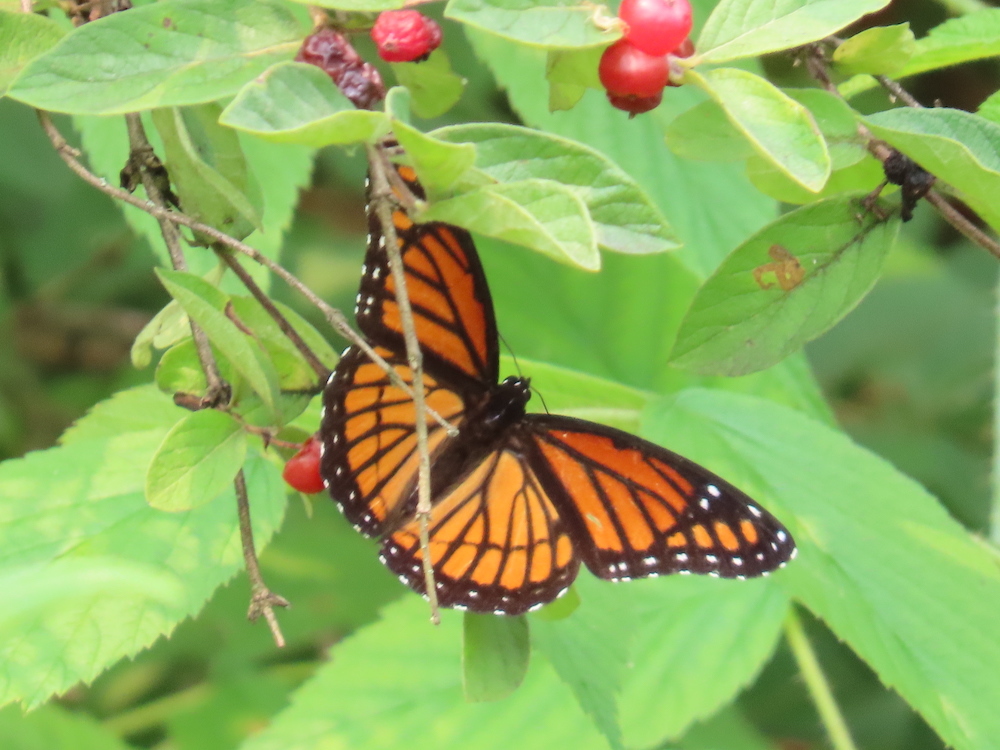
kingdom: Animalia
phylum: Arthropoda
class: Insecta
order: Lepidoptera
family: Nymphalidae
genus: Limenitis
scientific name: Limenitis archippus
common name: Viceroy
